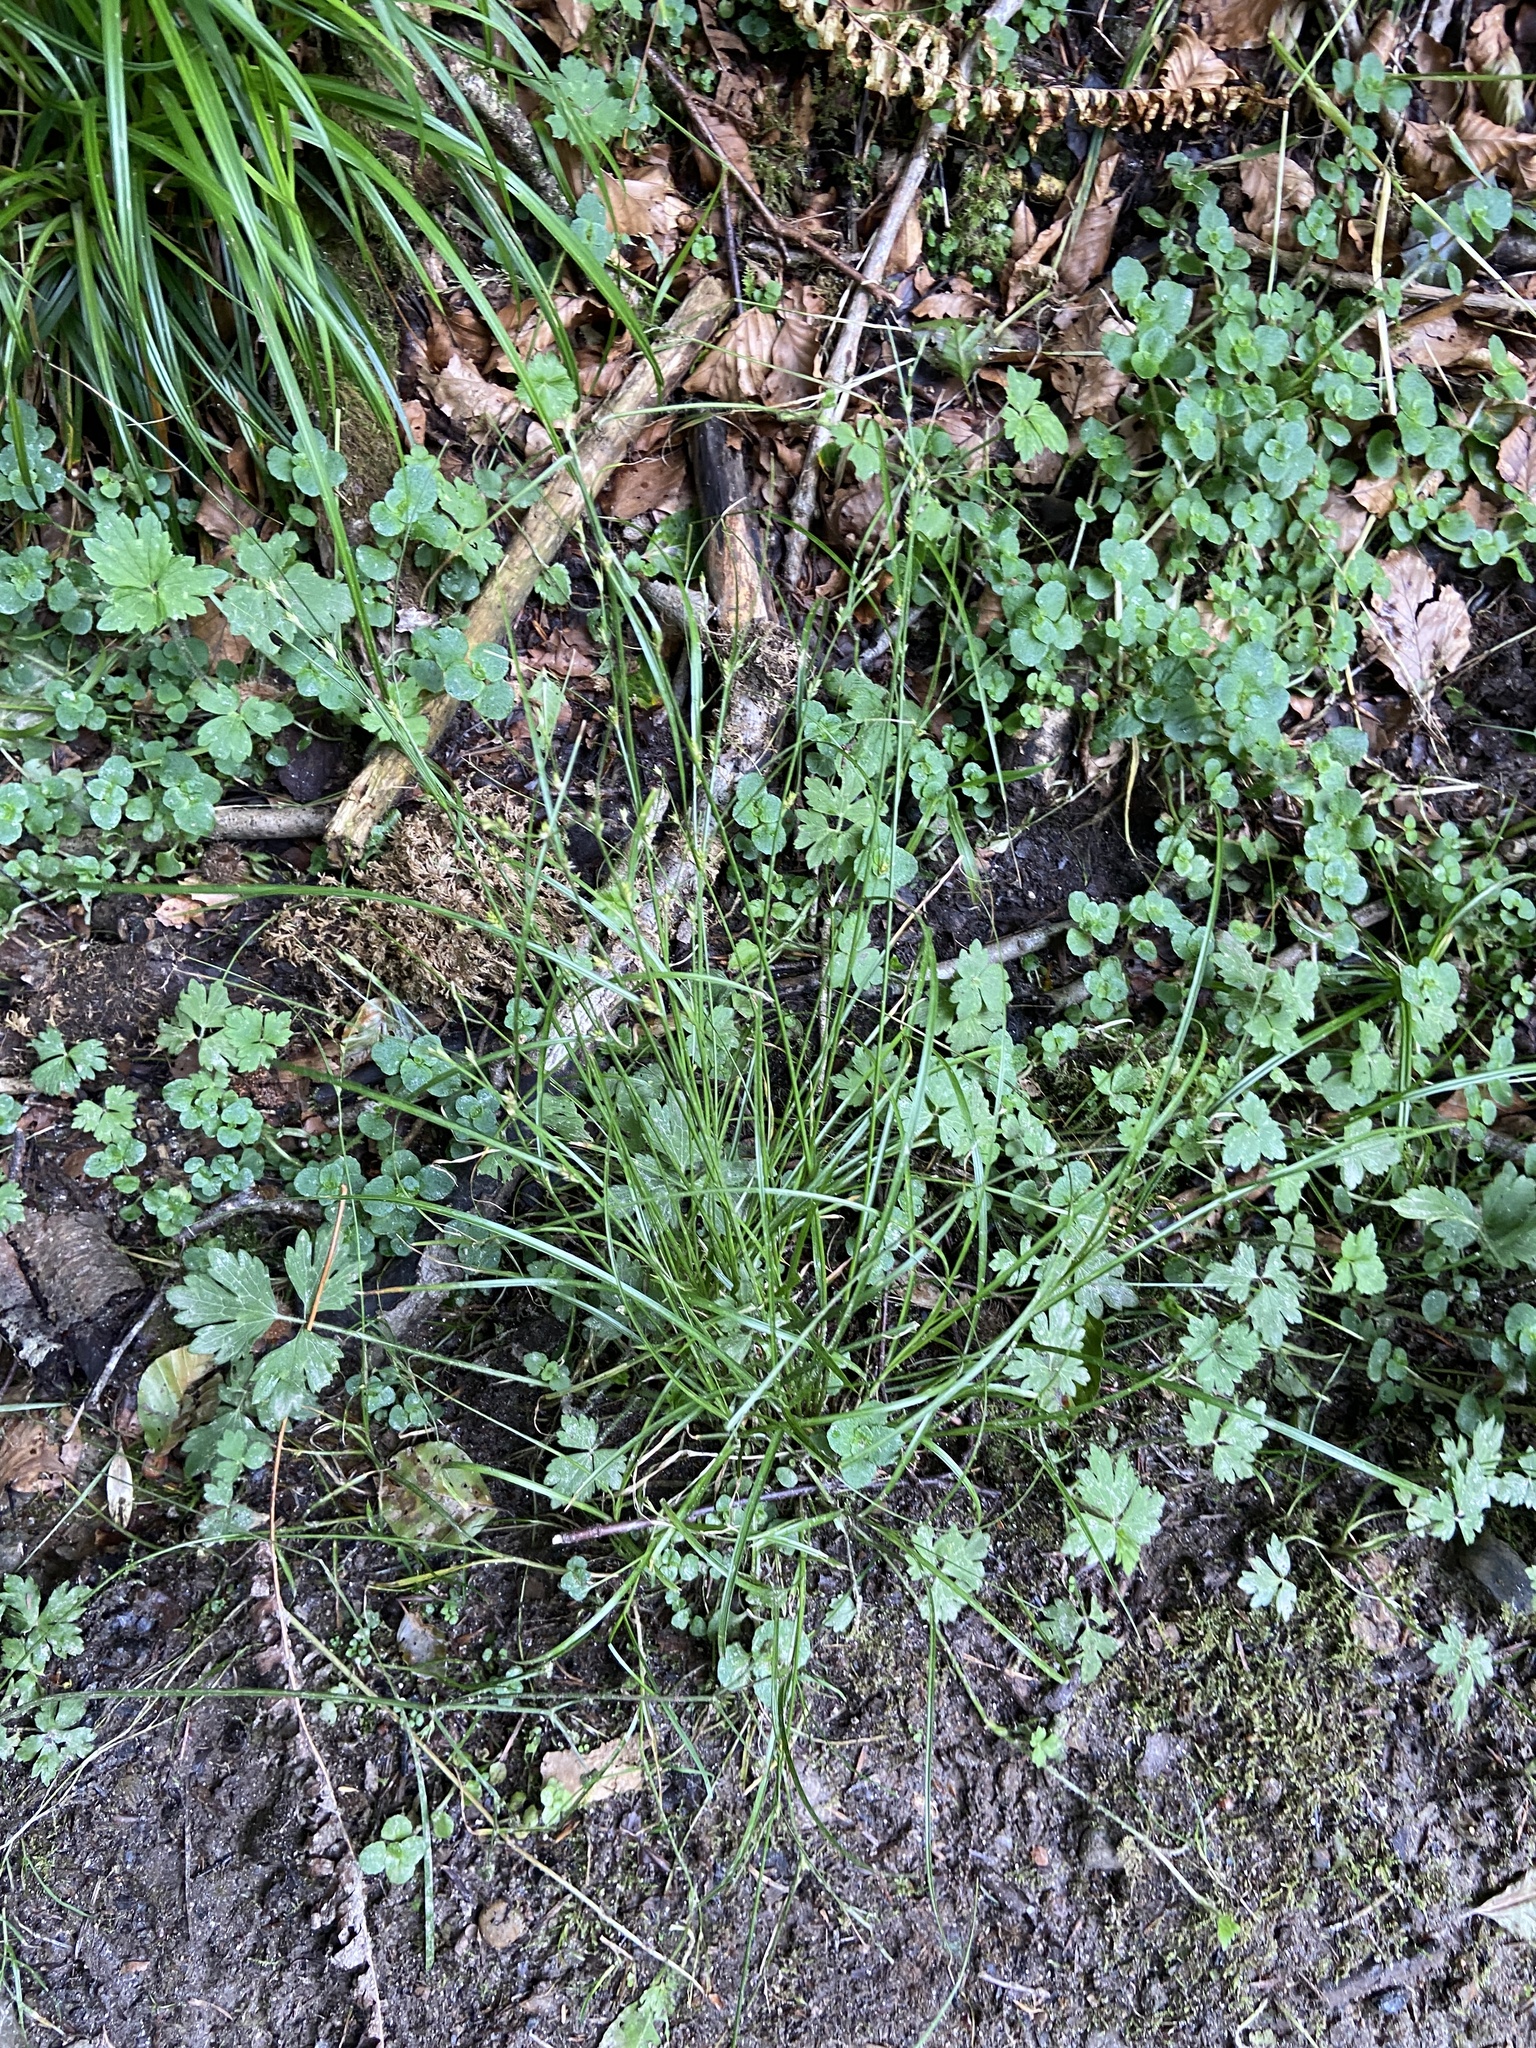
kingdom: Plantae
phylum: Tracheophyta
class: Liliopsida
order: Poales
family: Cyperaceae
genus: Carex
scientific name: Carex remota
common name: Remote sedge
